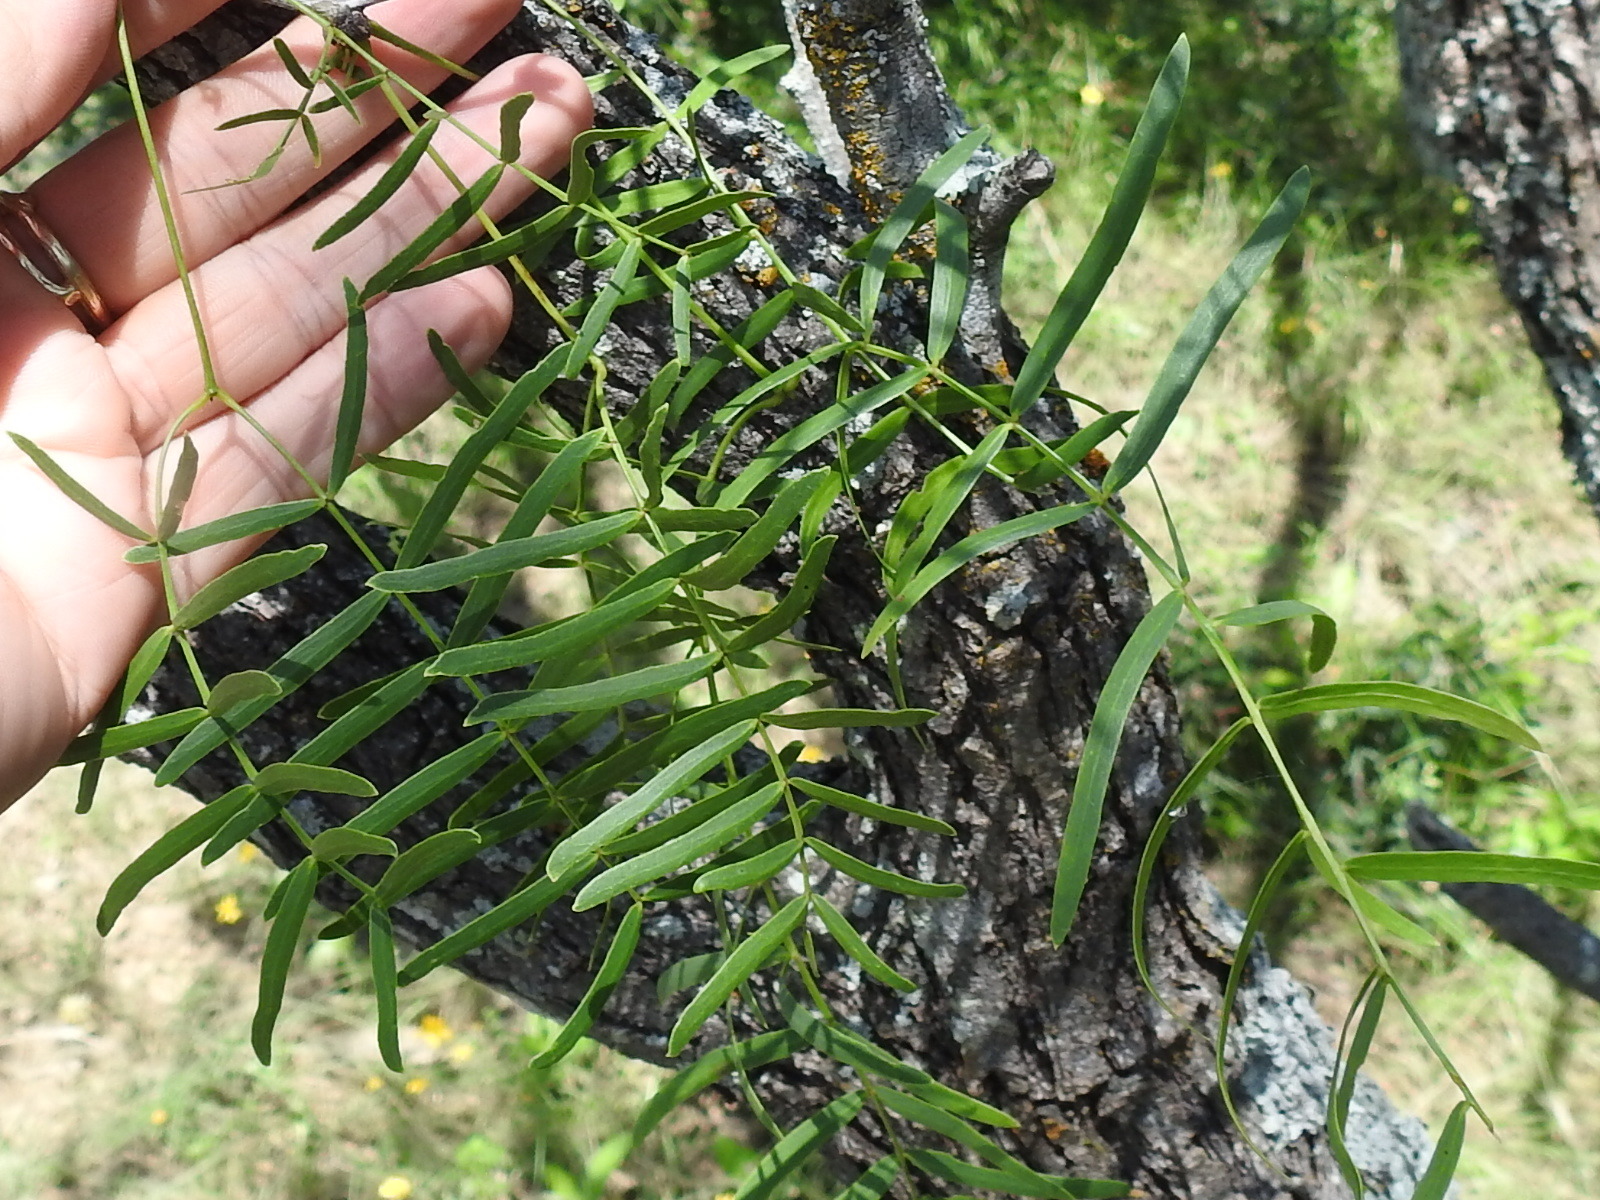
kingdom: Plantae
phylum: Tracheophyta
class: Magnoliopsida
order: Fabales
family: Fabaceae
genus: Prosopis
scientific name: Prosopis glandulosa
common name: Honey mesquite
